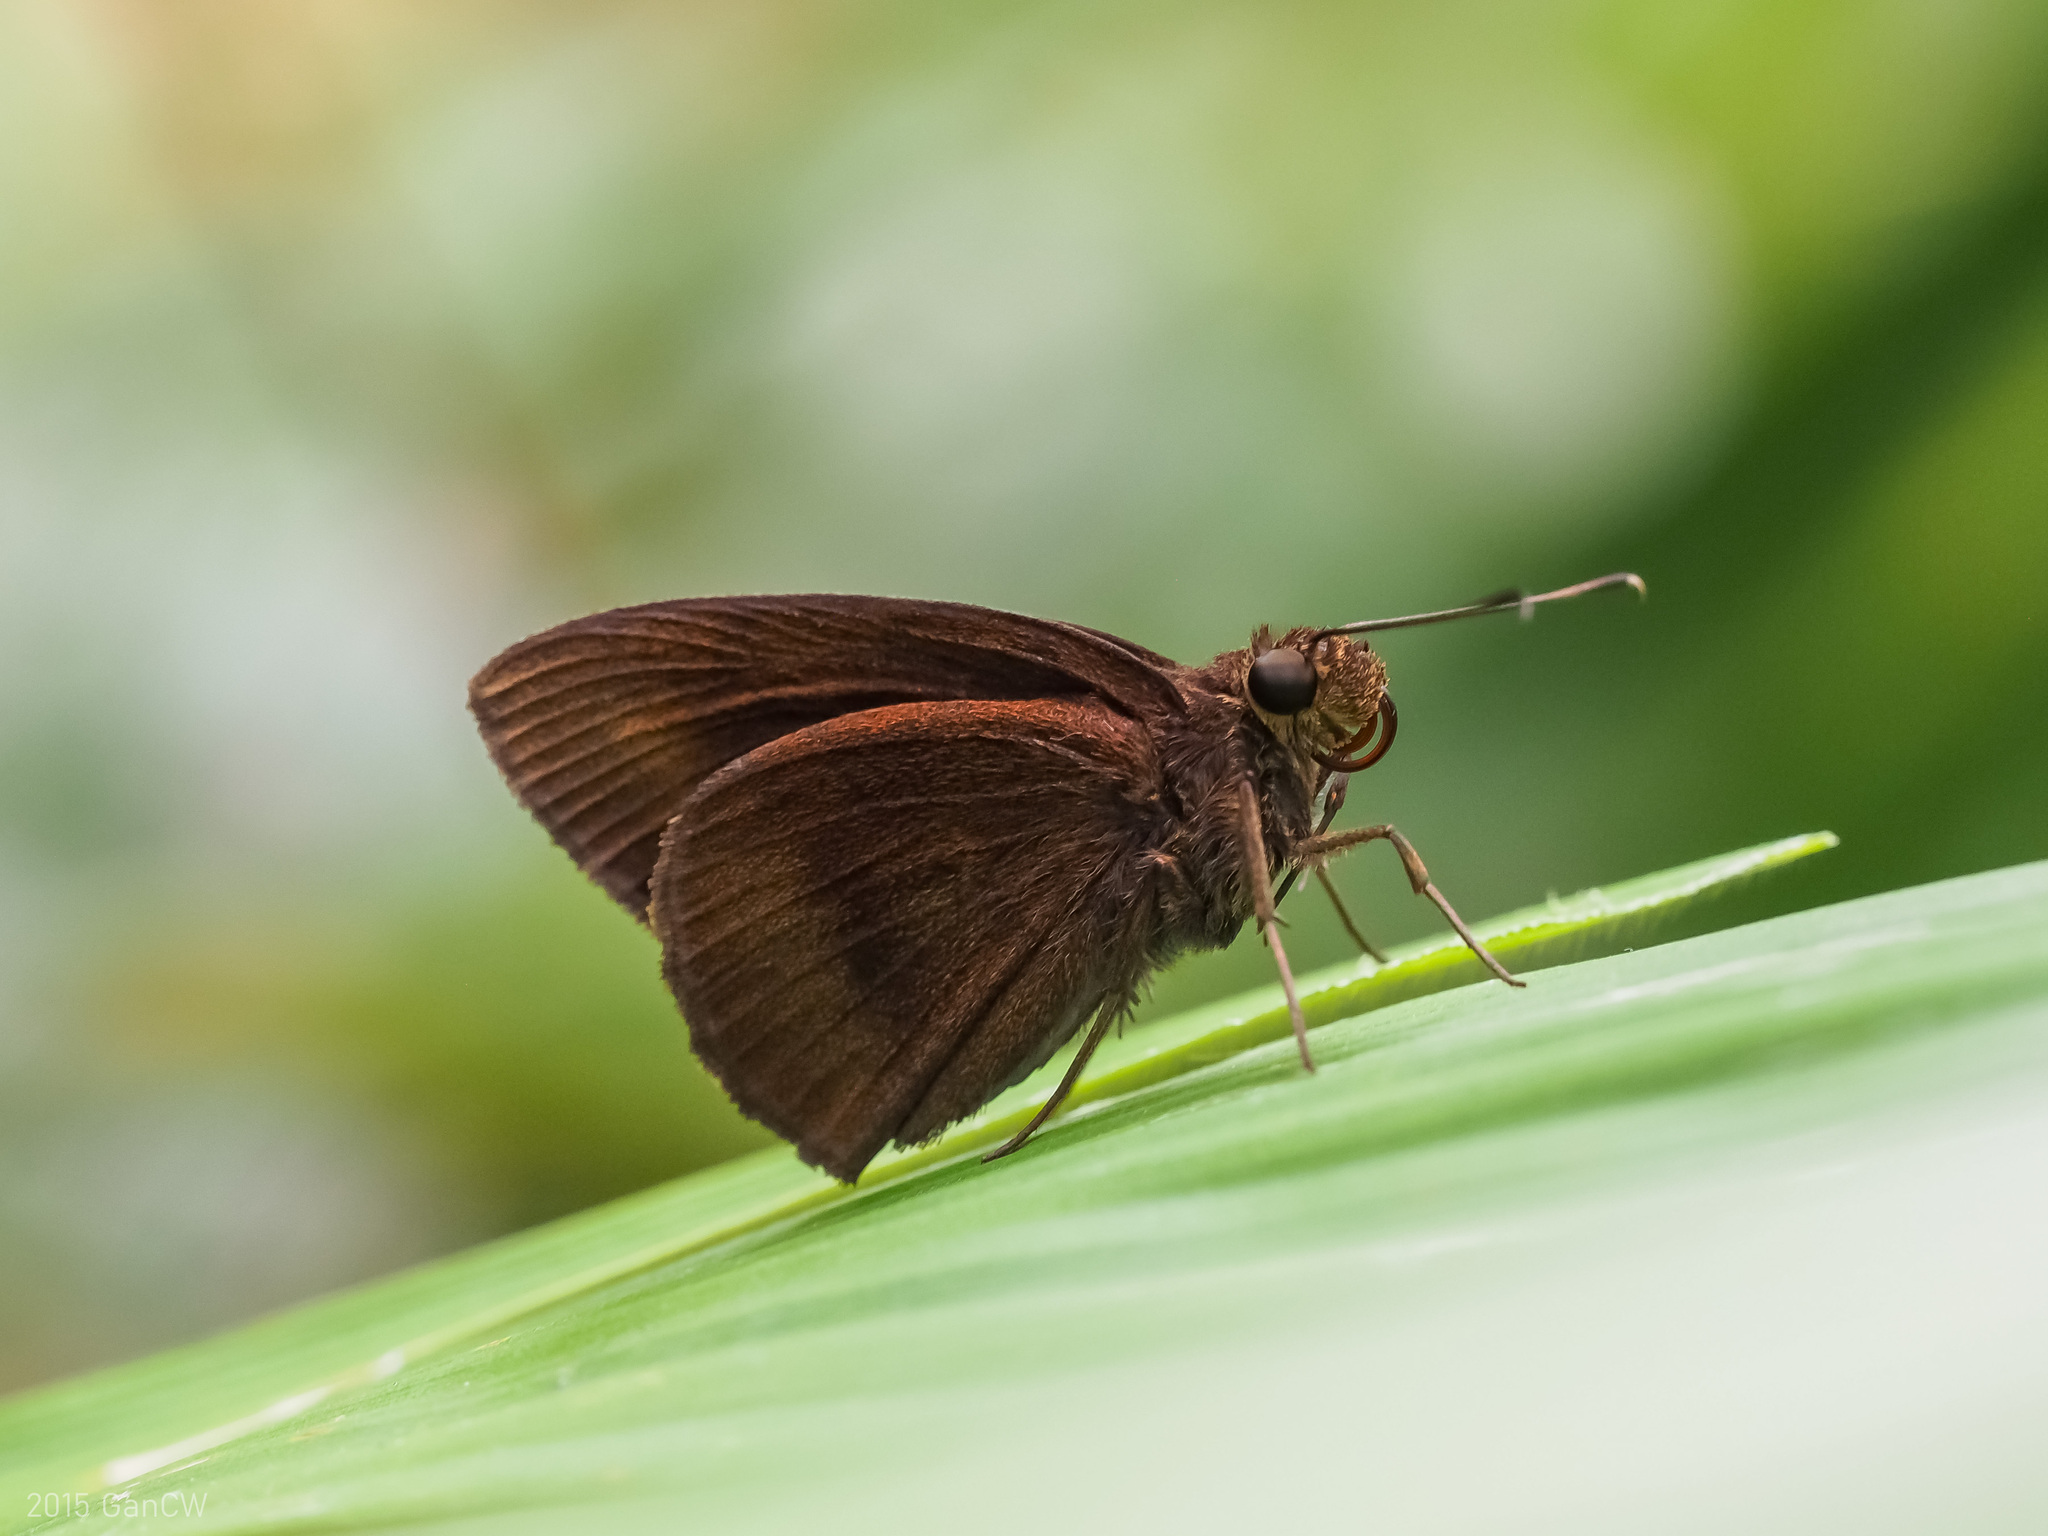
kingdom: Animalia
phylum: Arthropoda
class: Insecta
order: Lepidoptera
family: Hesperiidae
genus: Ancistroides
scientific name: Ancistroides nigrita
